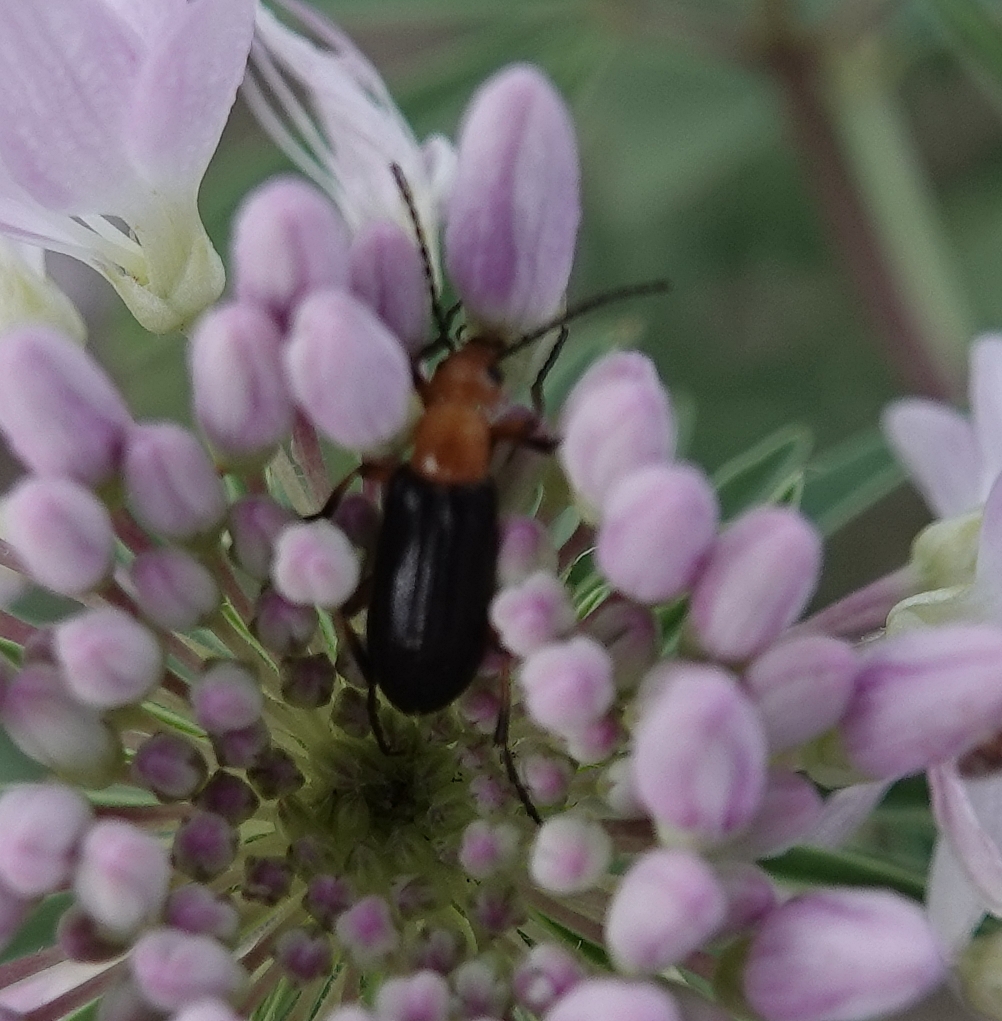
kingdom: Animalia
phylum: Arthropoda
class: Insecta
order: Coleoptera
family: Meloidae
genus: Zonitis
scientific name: Zonitis atripennis
